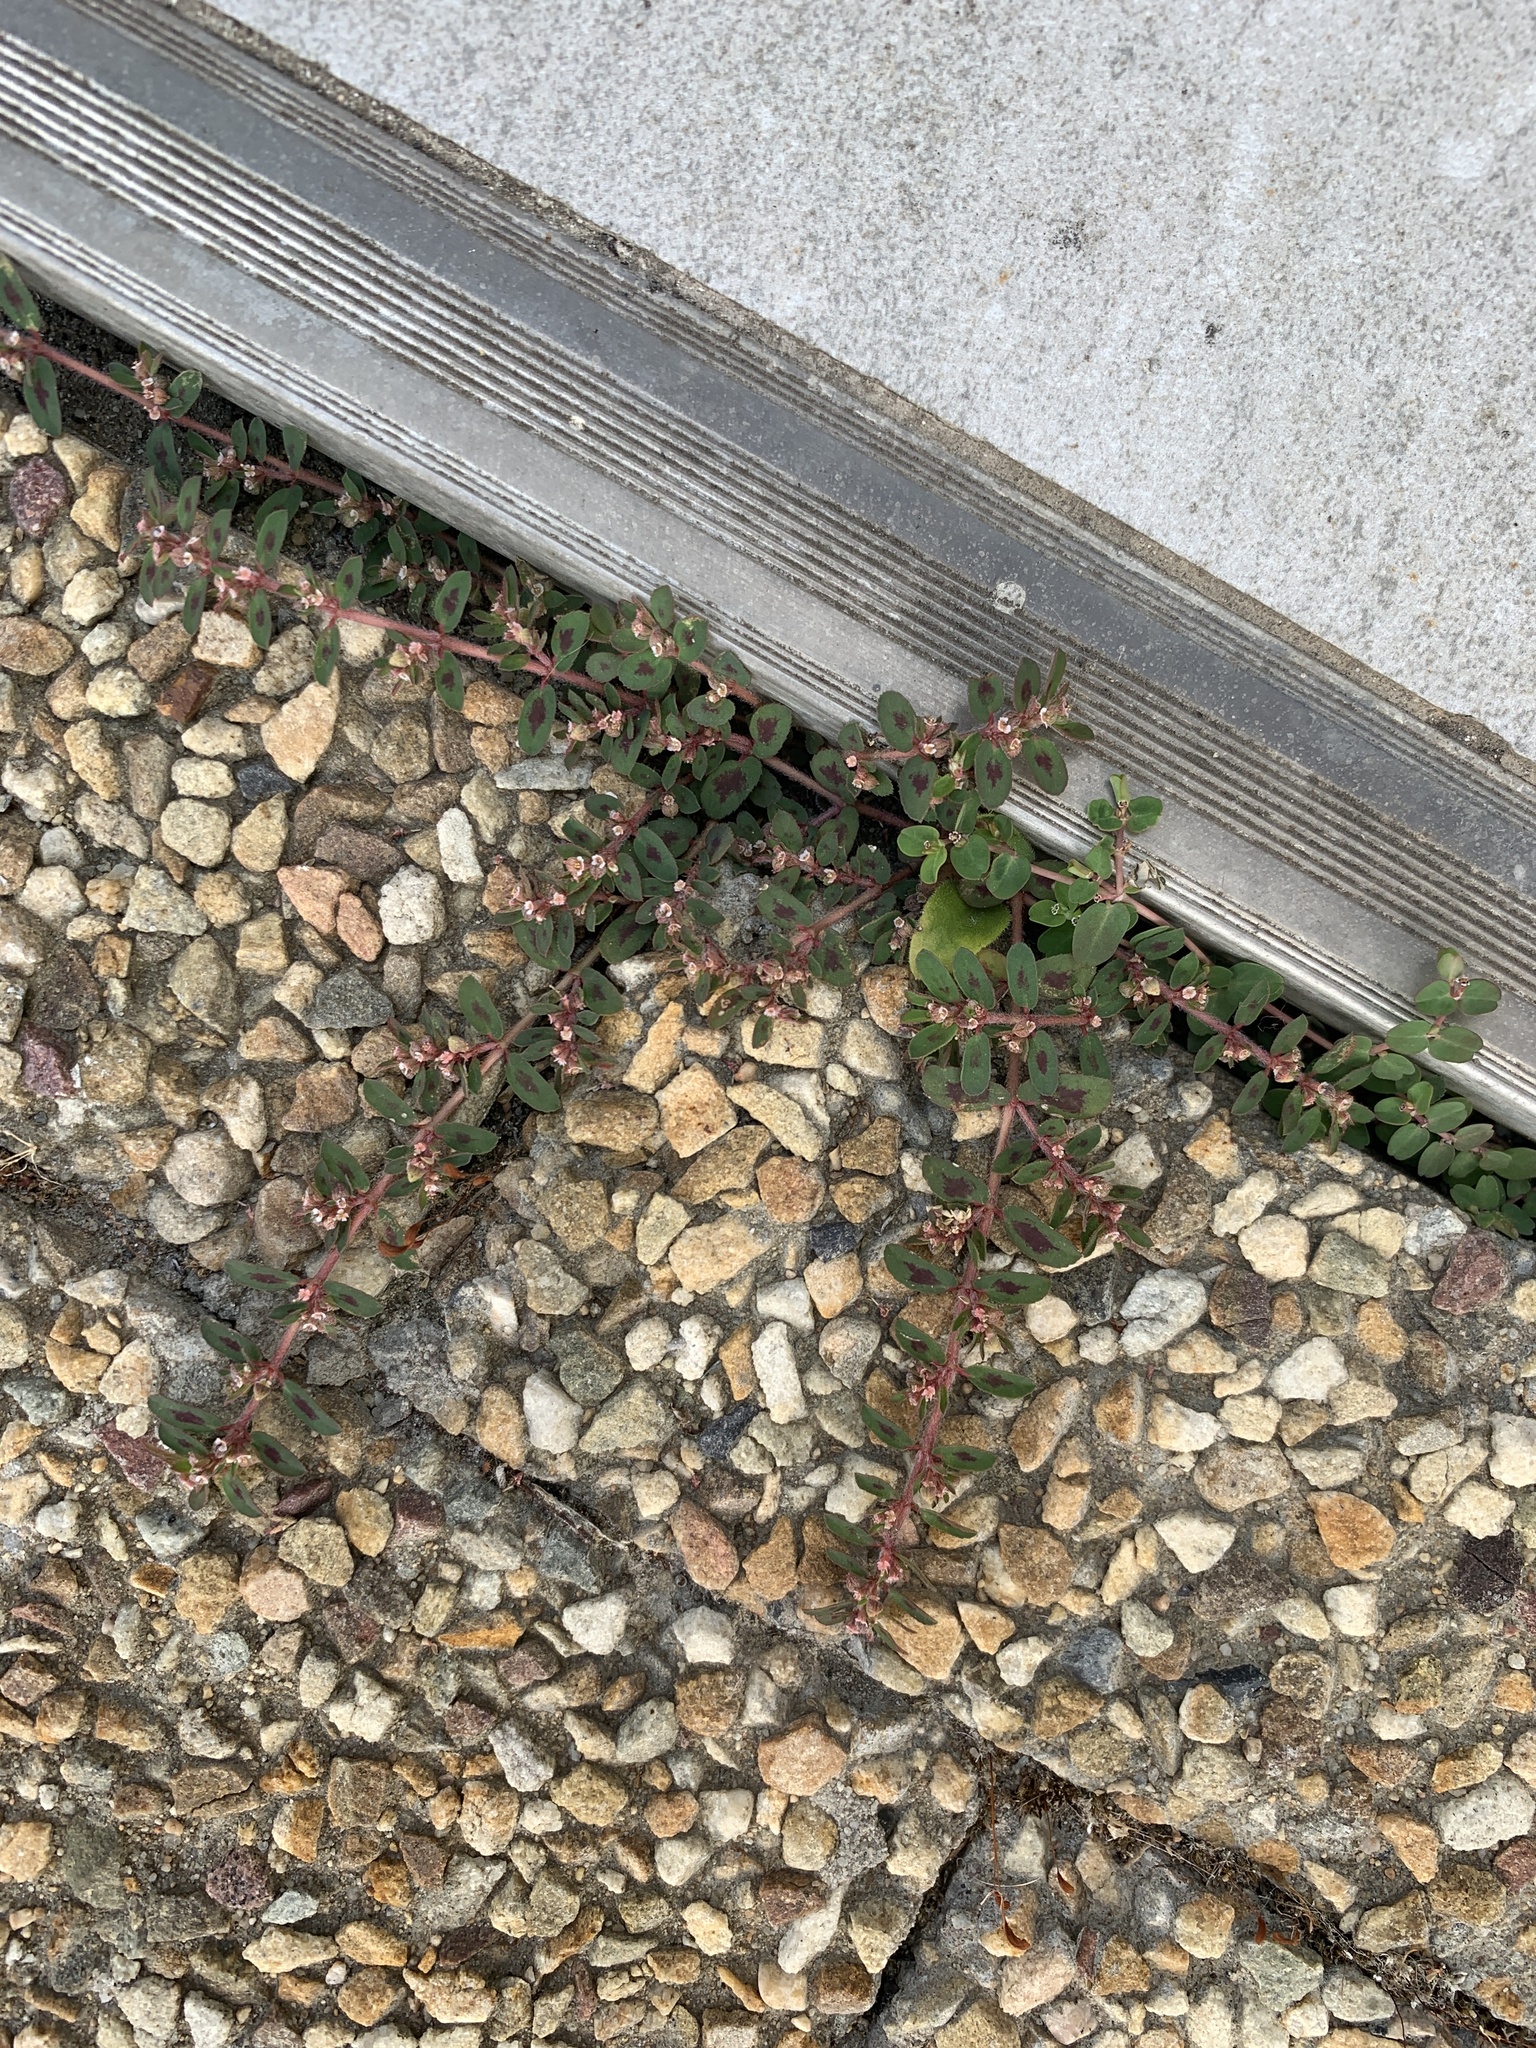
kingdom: Plantae
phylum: Tracheophyta
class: Magnoliopsida
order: Malpighiales
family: Euphorbiaceae
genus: Euphorbia
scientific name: Euphorbia maculata
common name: Spotted spurge
